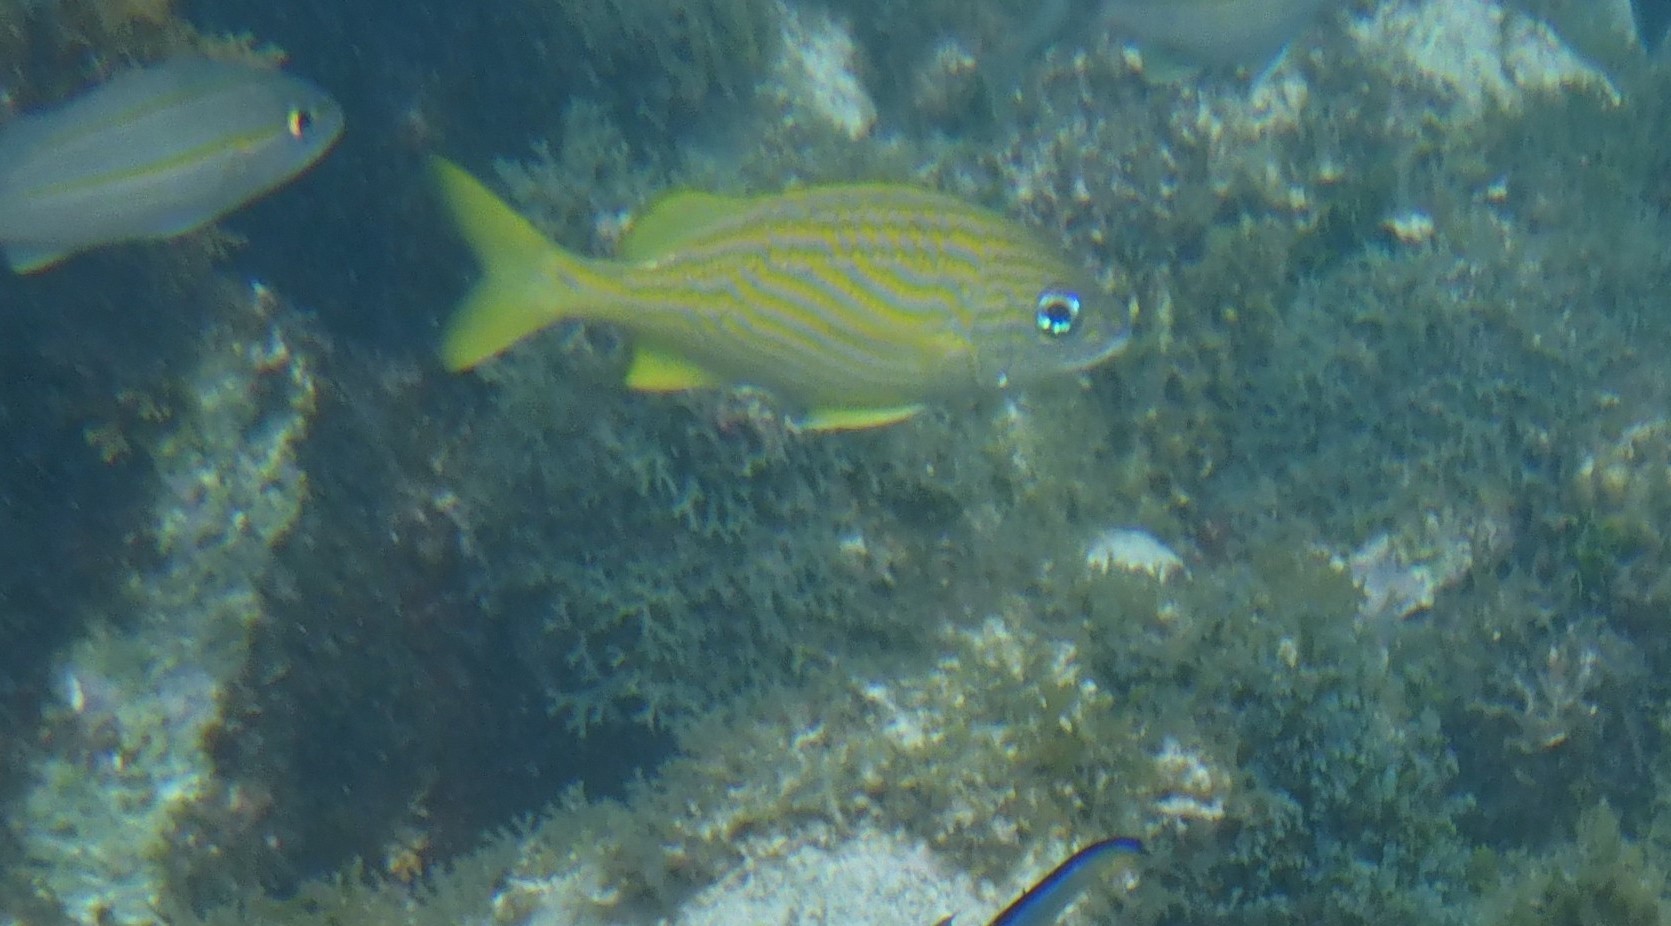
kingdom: Animalia
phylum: Chordata
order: Perciformes
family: Haemulidae
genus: Haemulon
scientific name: Haemulon flavolineatum
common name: French grunt
